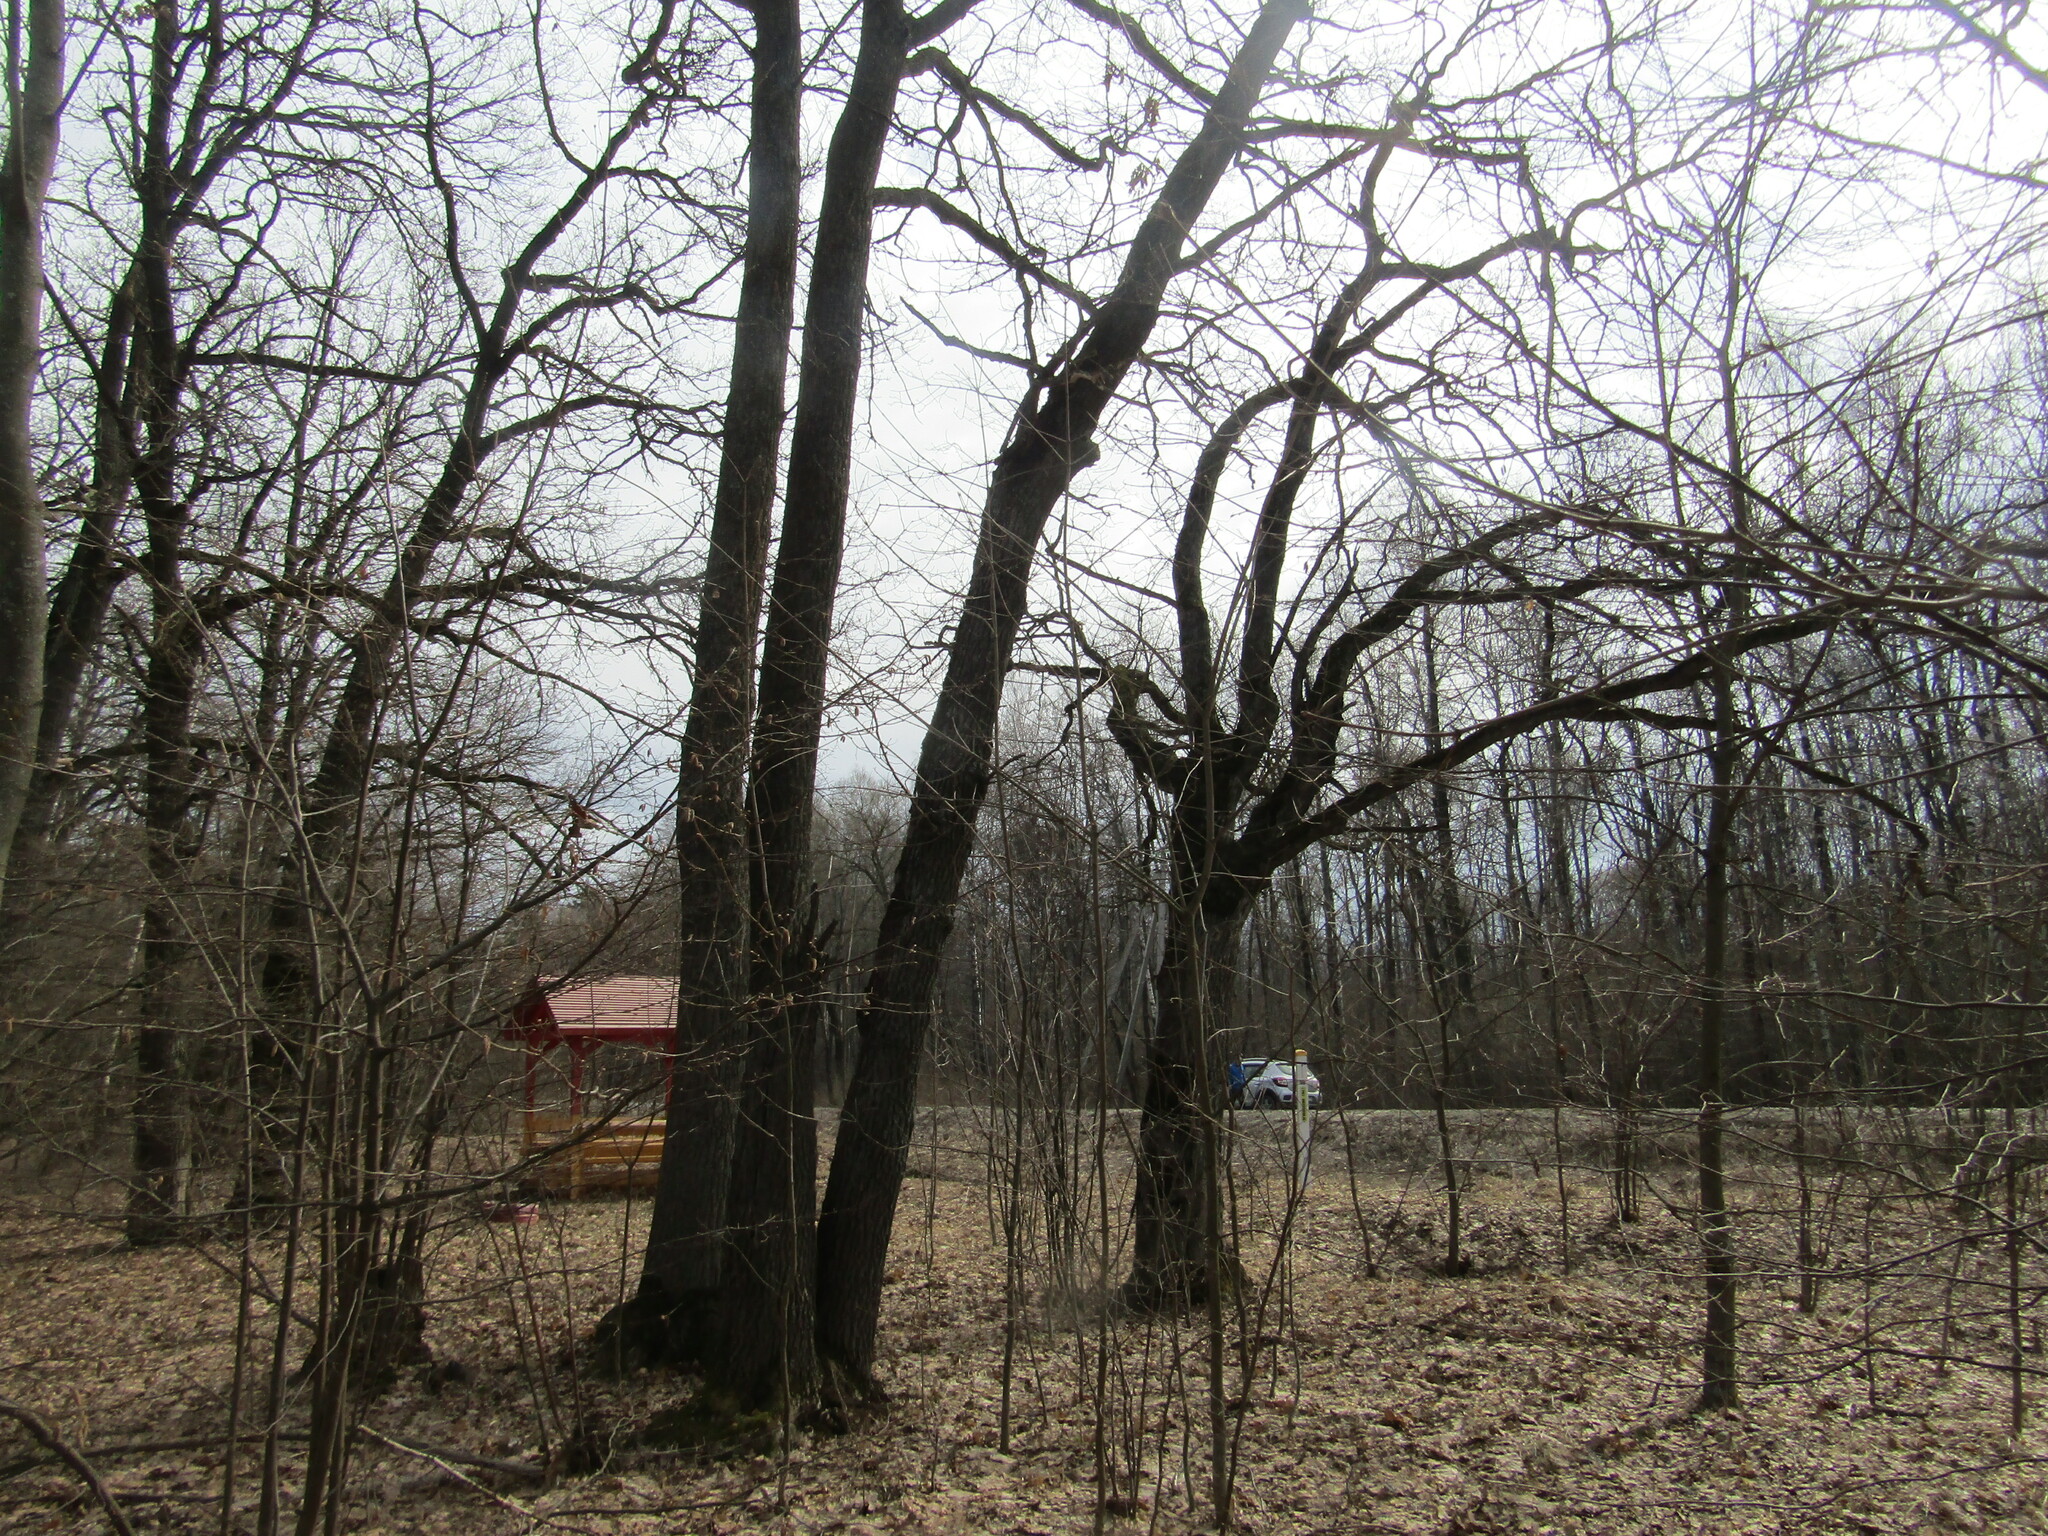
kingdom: Plantae
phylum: Tracheophyta
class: Magnoliopsida
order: Fagales
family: Fagaceae
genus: Quercus
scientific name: Quercus robur
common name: Pedunculate oak
